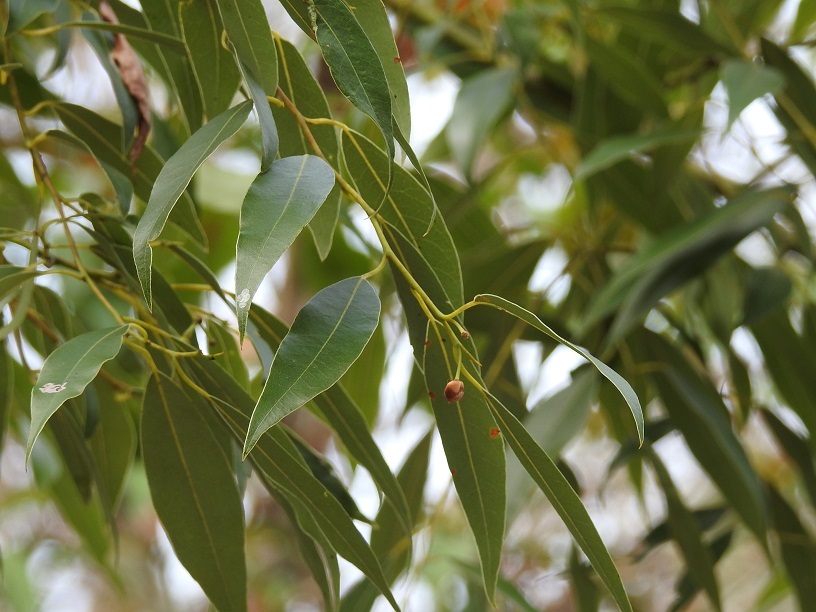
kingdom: Plantae
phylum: Tracheophyta
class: Magnoliopsida
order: Laurales
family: Lauraceae
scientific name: Lauraceae
